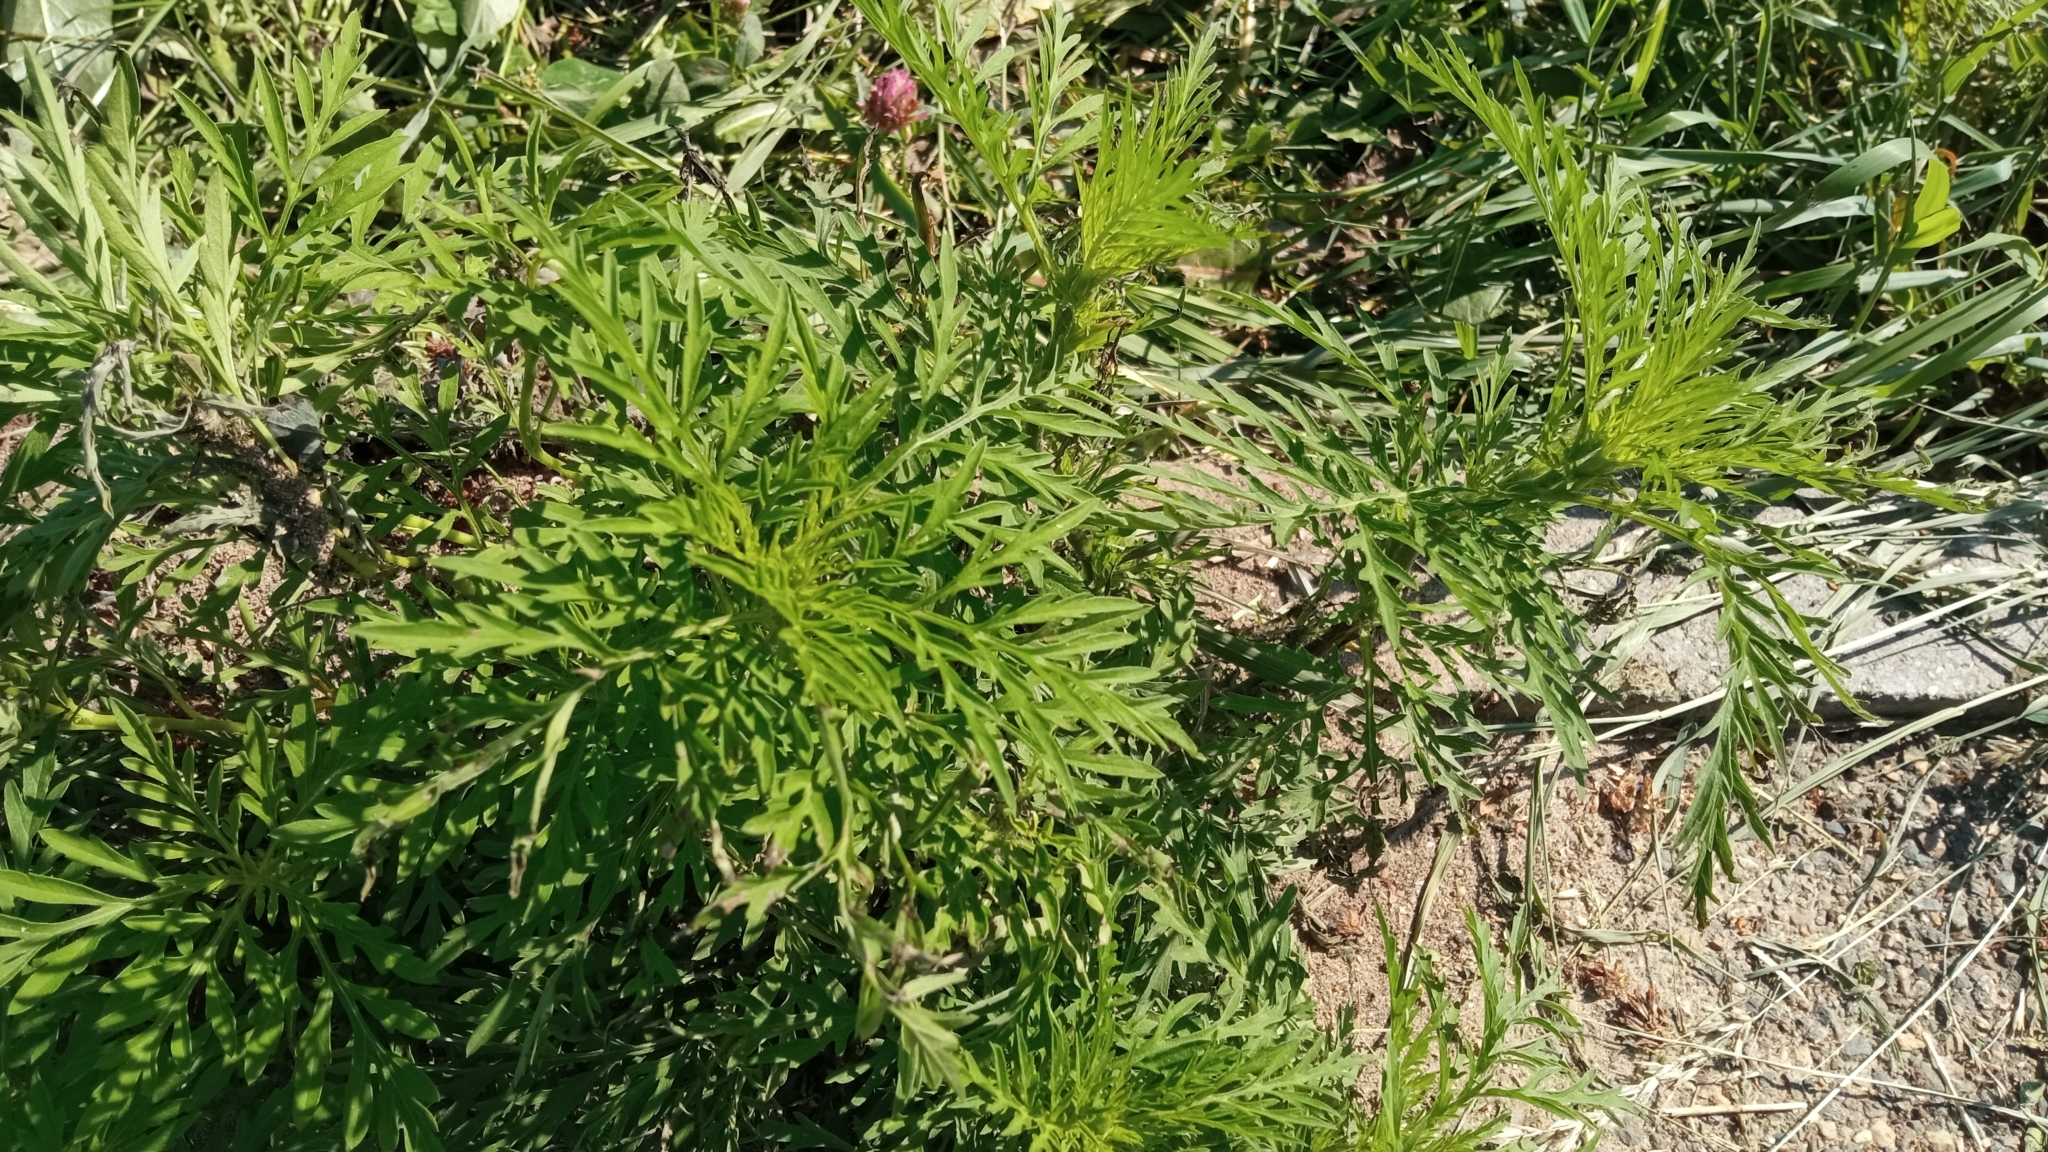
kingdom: Plantae
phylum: Tracheophyta
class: Magnoliopsida
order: Asterales
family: Asteraceae
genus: Ambrosia
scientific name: Ambrosia artemisiifolia
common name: Annual ragweed
